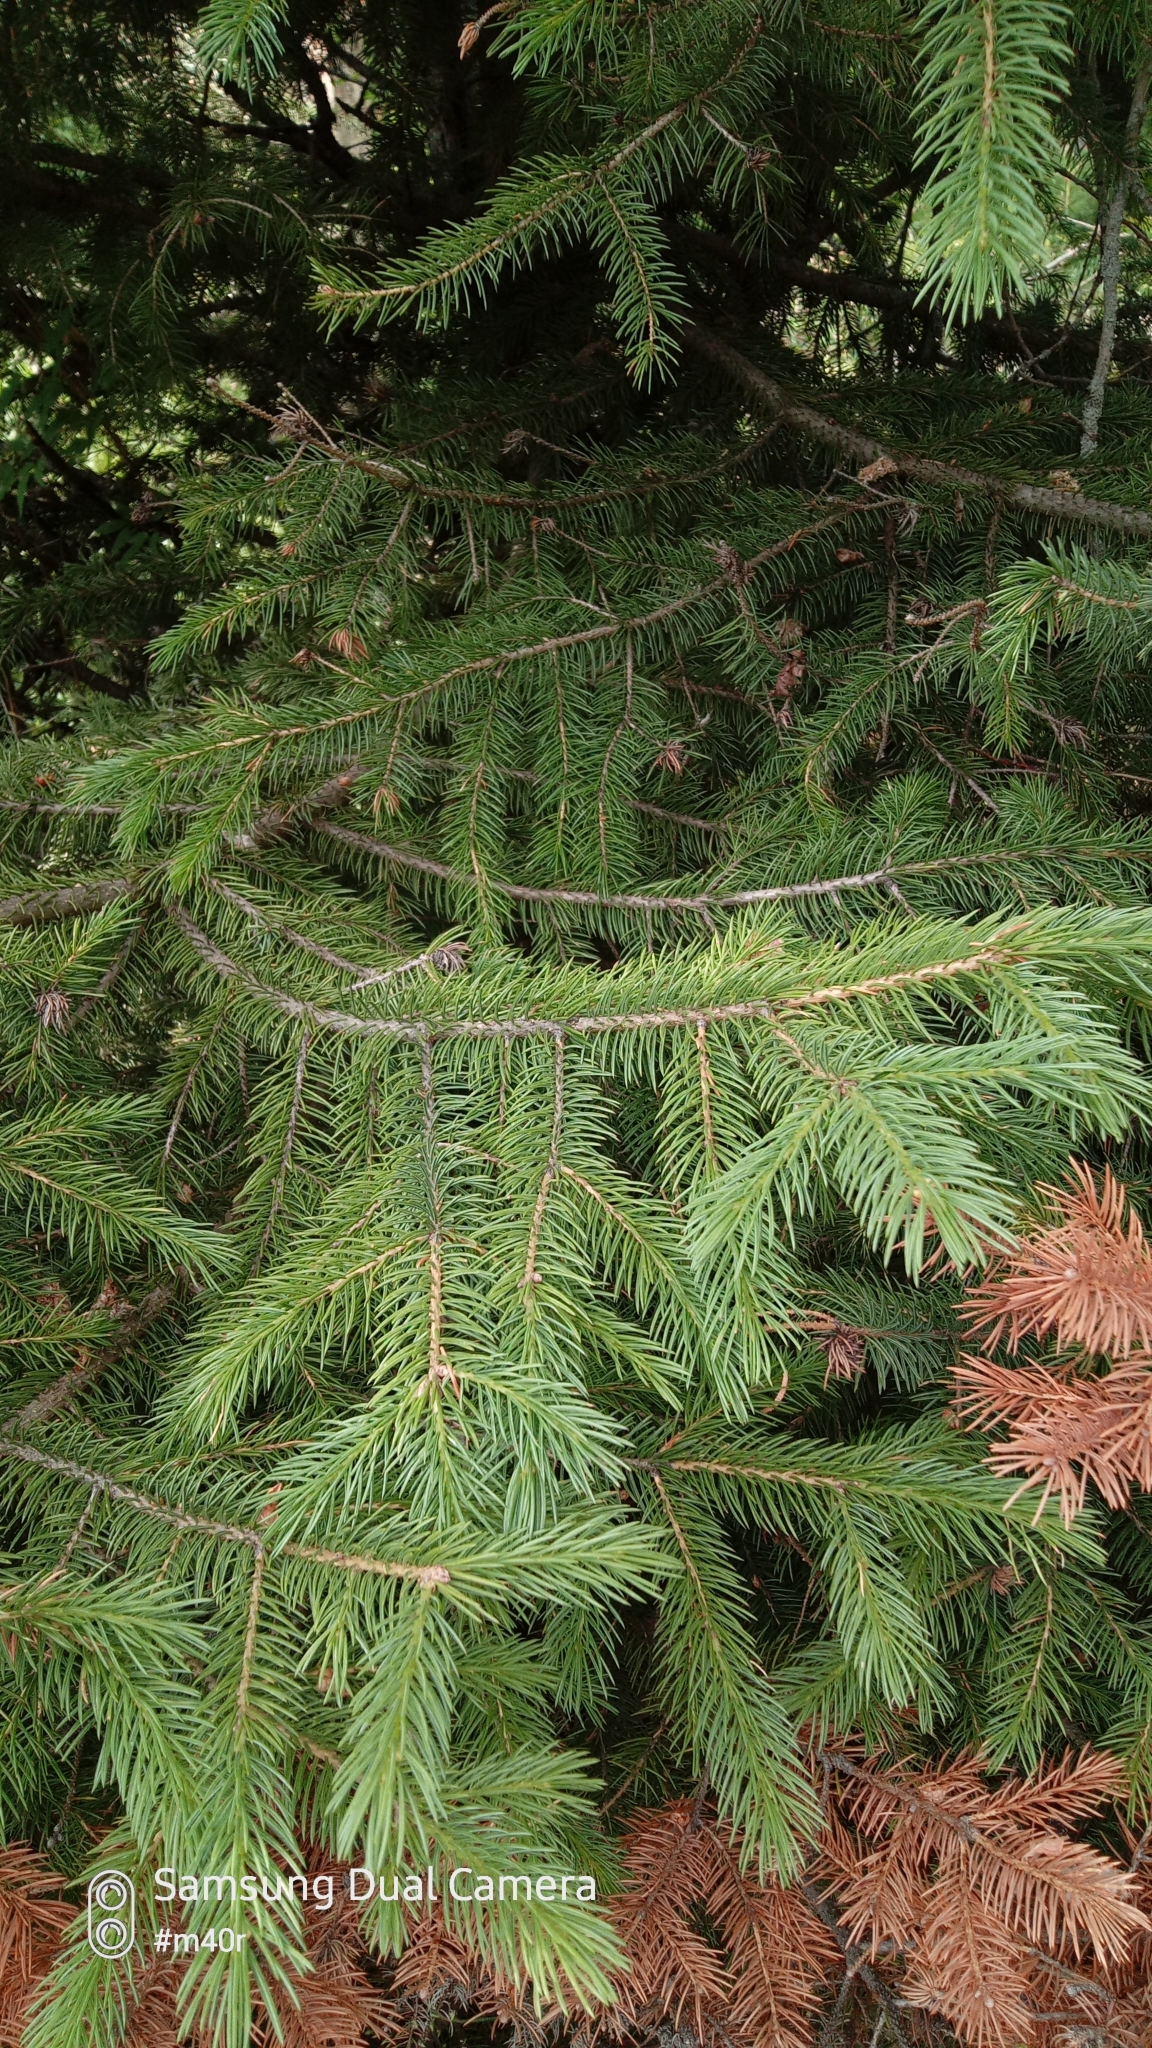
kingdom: Plantae
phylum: Tracheophyta
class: Pinopsida
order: Pinales
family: Pinaceae
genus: Picea
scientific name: Picea schrenkiana
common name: Asian spruce
